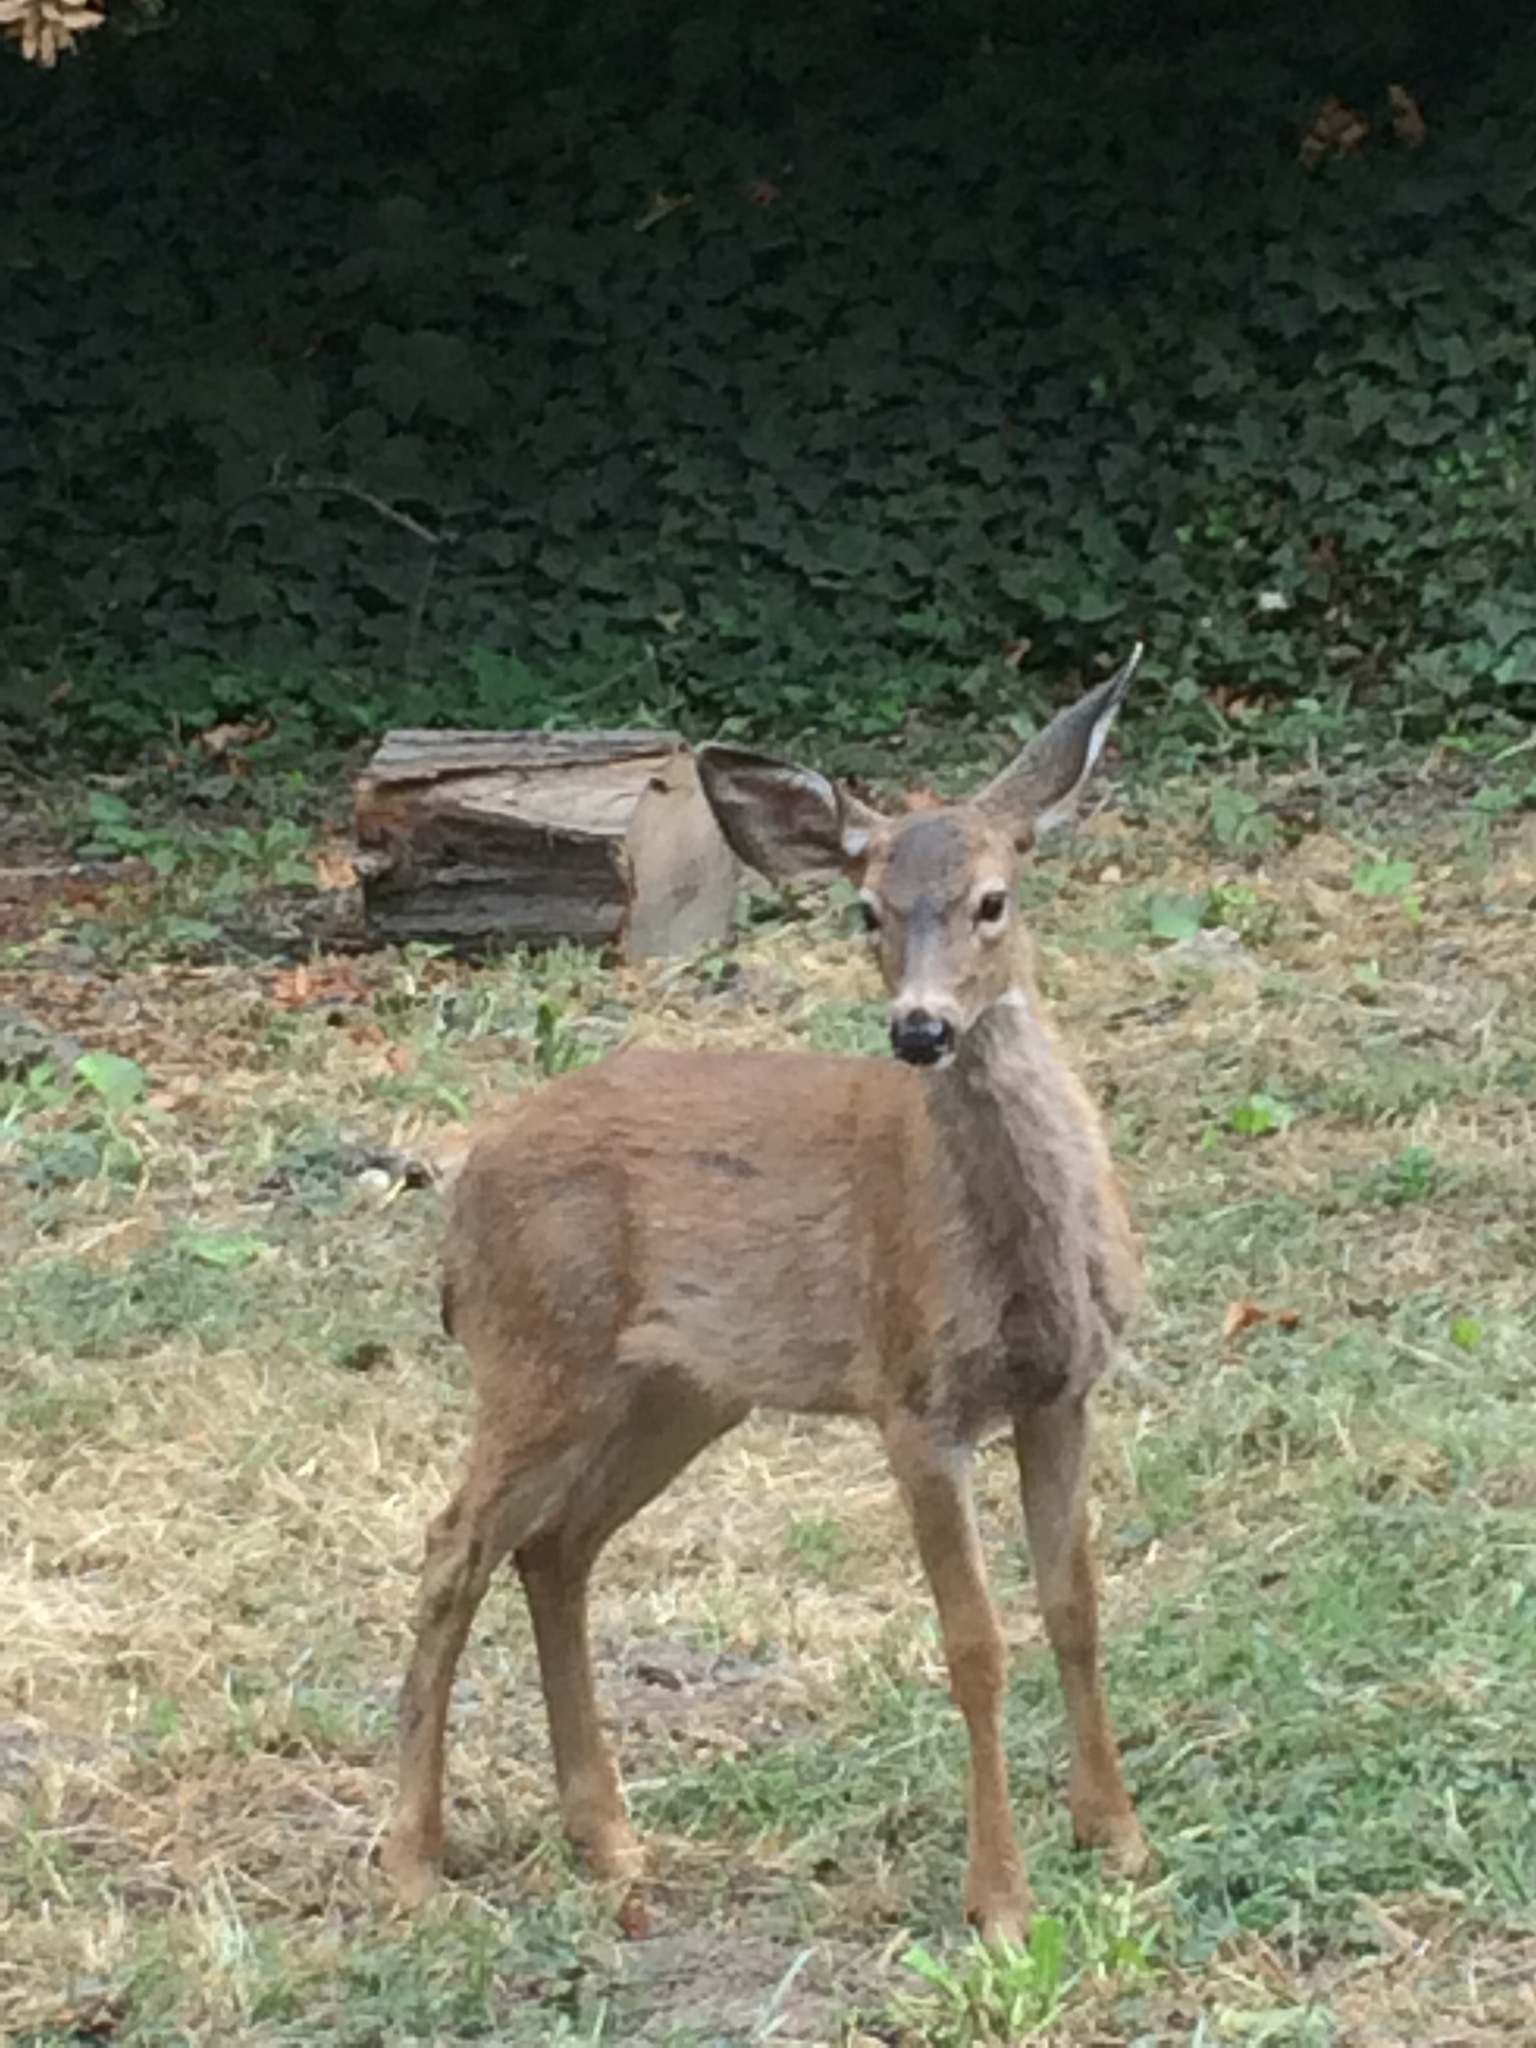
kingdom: Animalia
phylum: Chordata
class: Mammalia
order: Artiodactyla
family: Cervidae
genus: Odocoileus
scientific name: Odocoileus hemionus
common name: Mule deer
